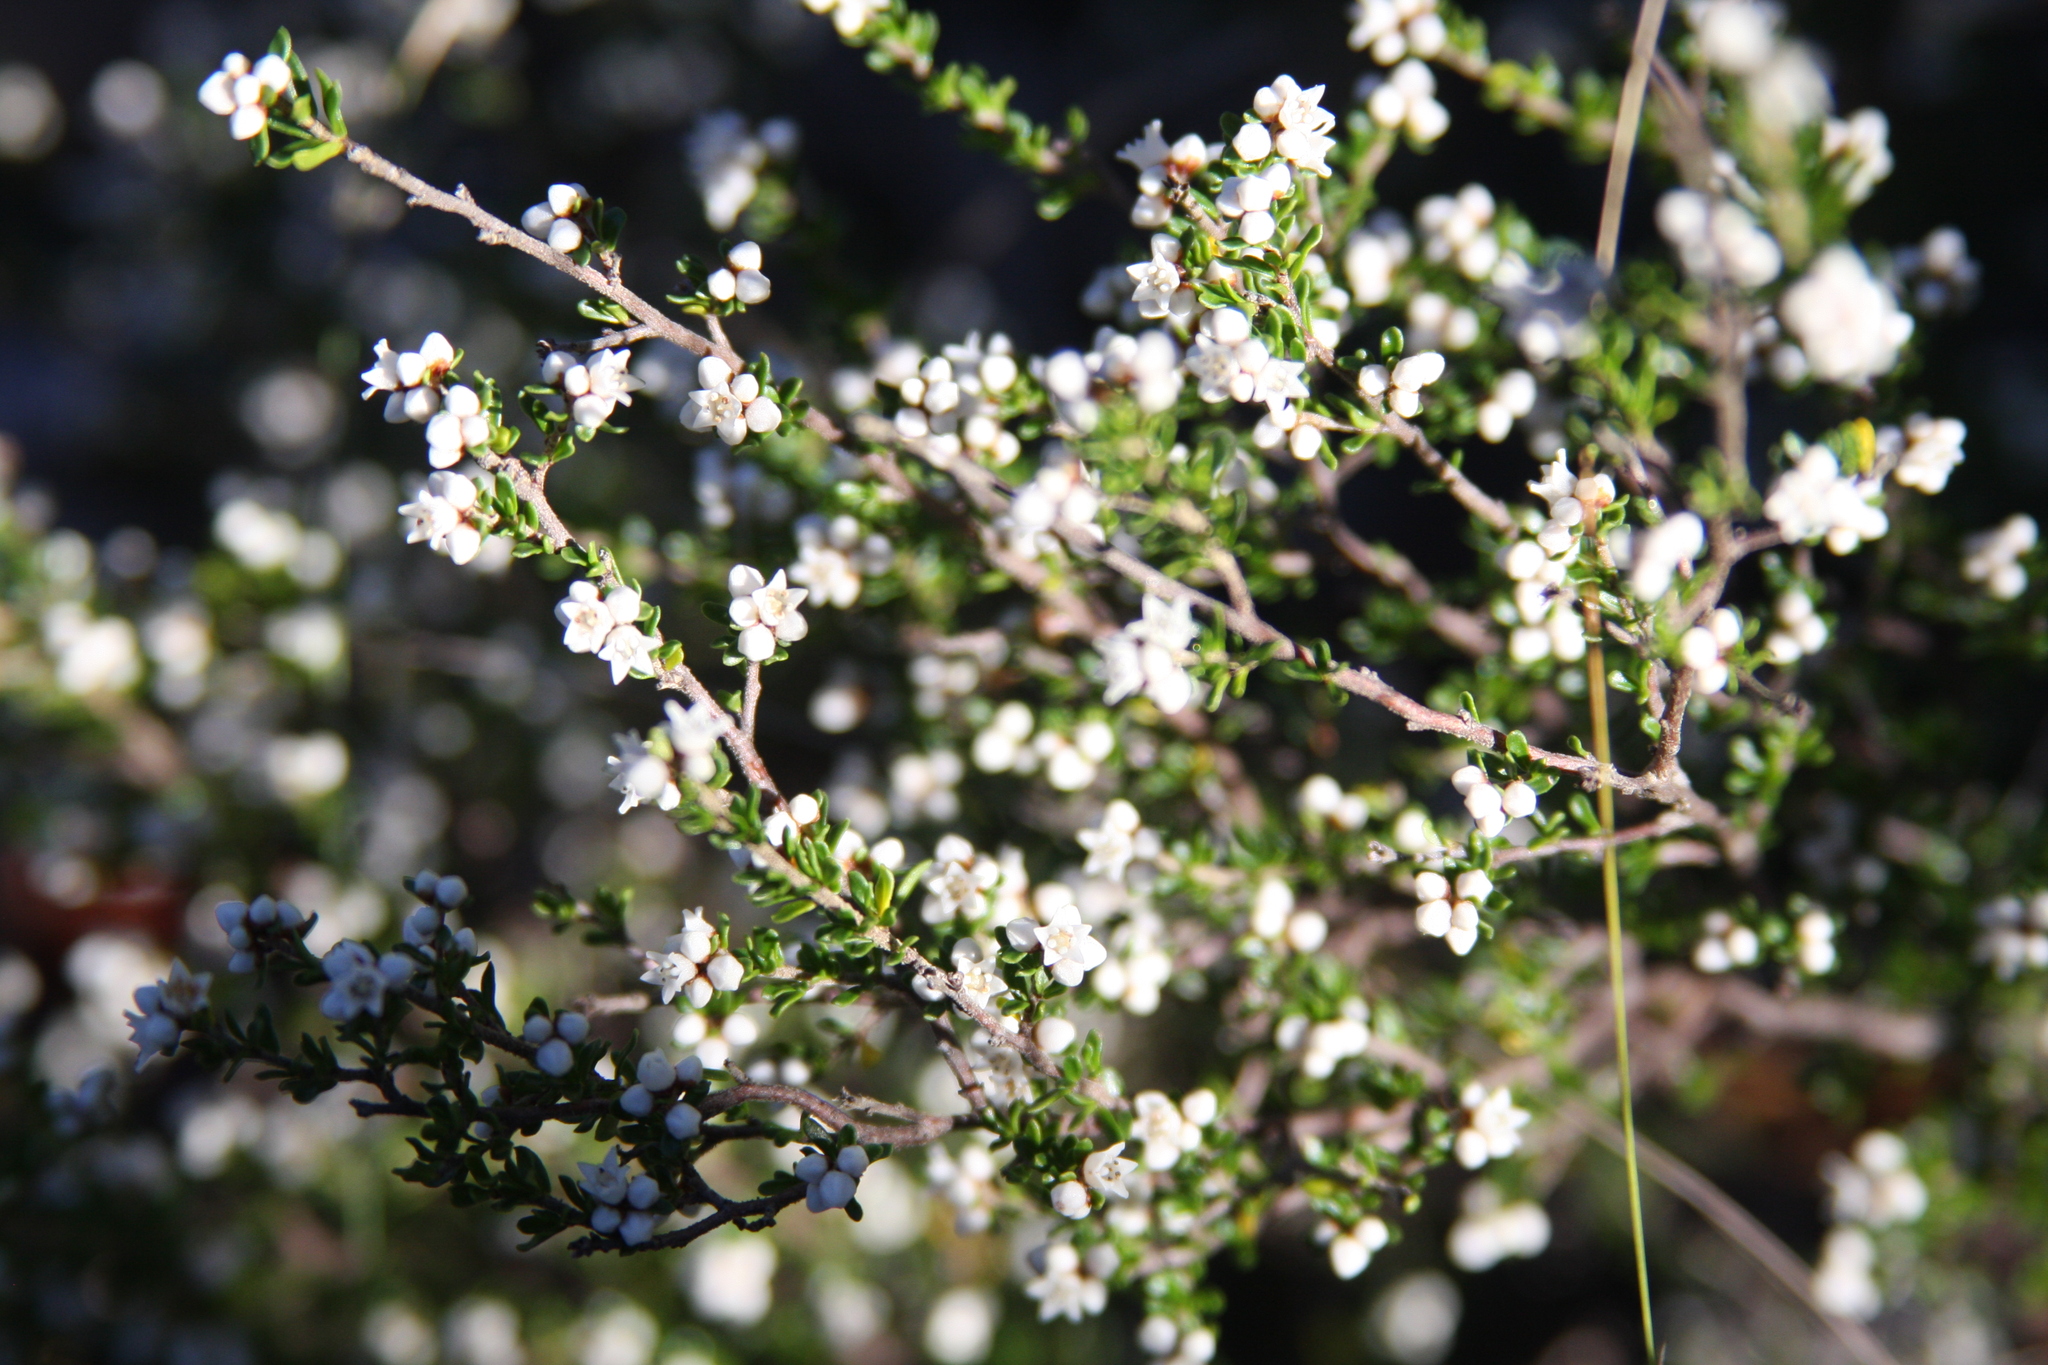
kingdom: Plantae
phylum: Tracheophyta
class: Magnoliopsida
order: Rosales
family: Rhamnaceae
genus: Cryptandra
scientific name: Cryptandra amara
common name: Bitter cryptandra
